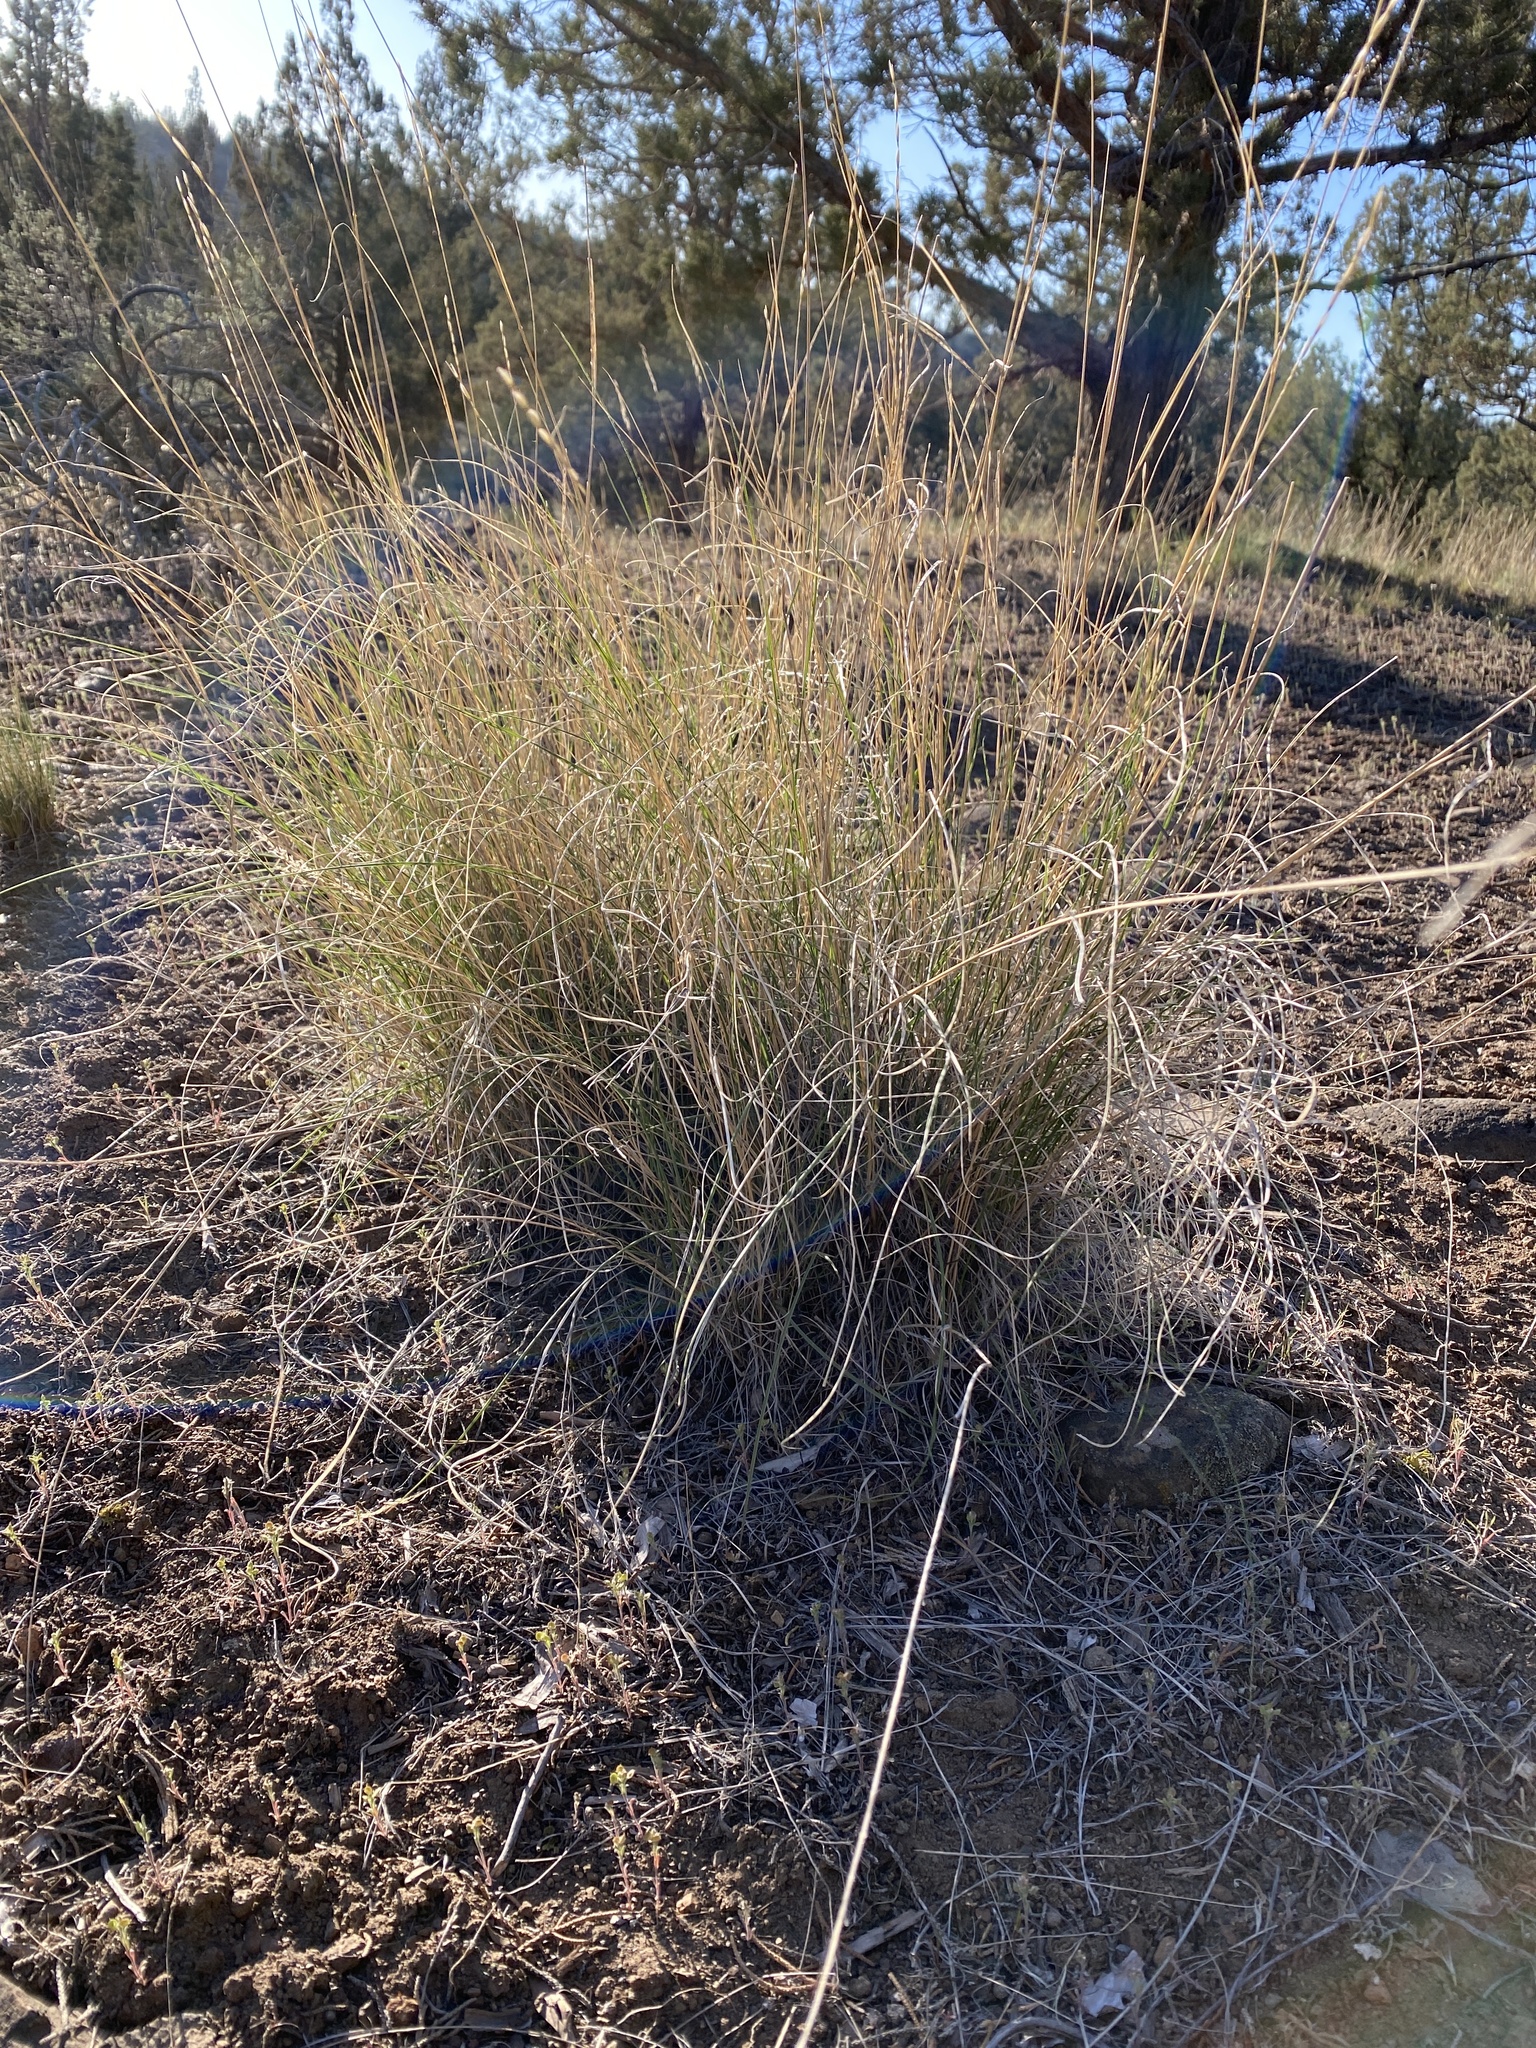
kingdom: Plantae
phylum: Tracheophyta
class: Liliopsida
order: Poales
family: Poaceae
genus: Pseudoroegneria
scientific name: Pseudoroegneria spicata
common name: Bluebunch wheatgrass
